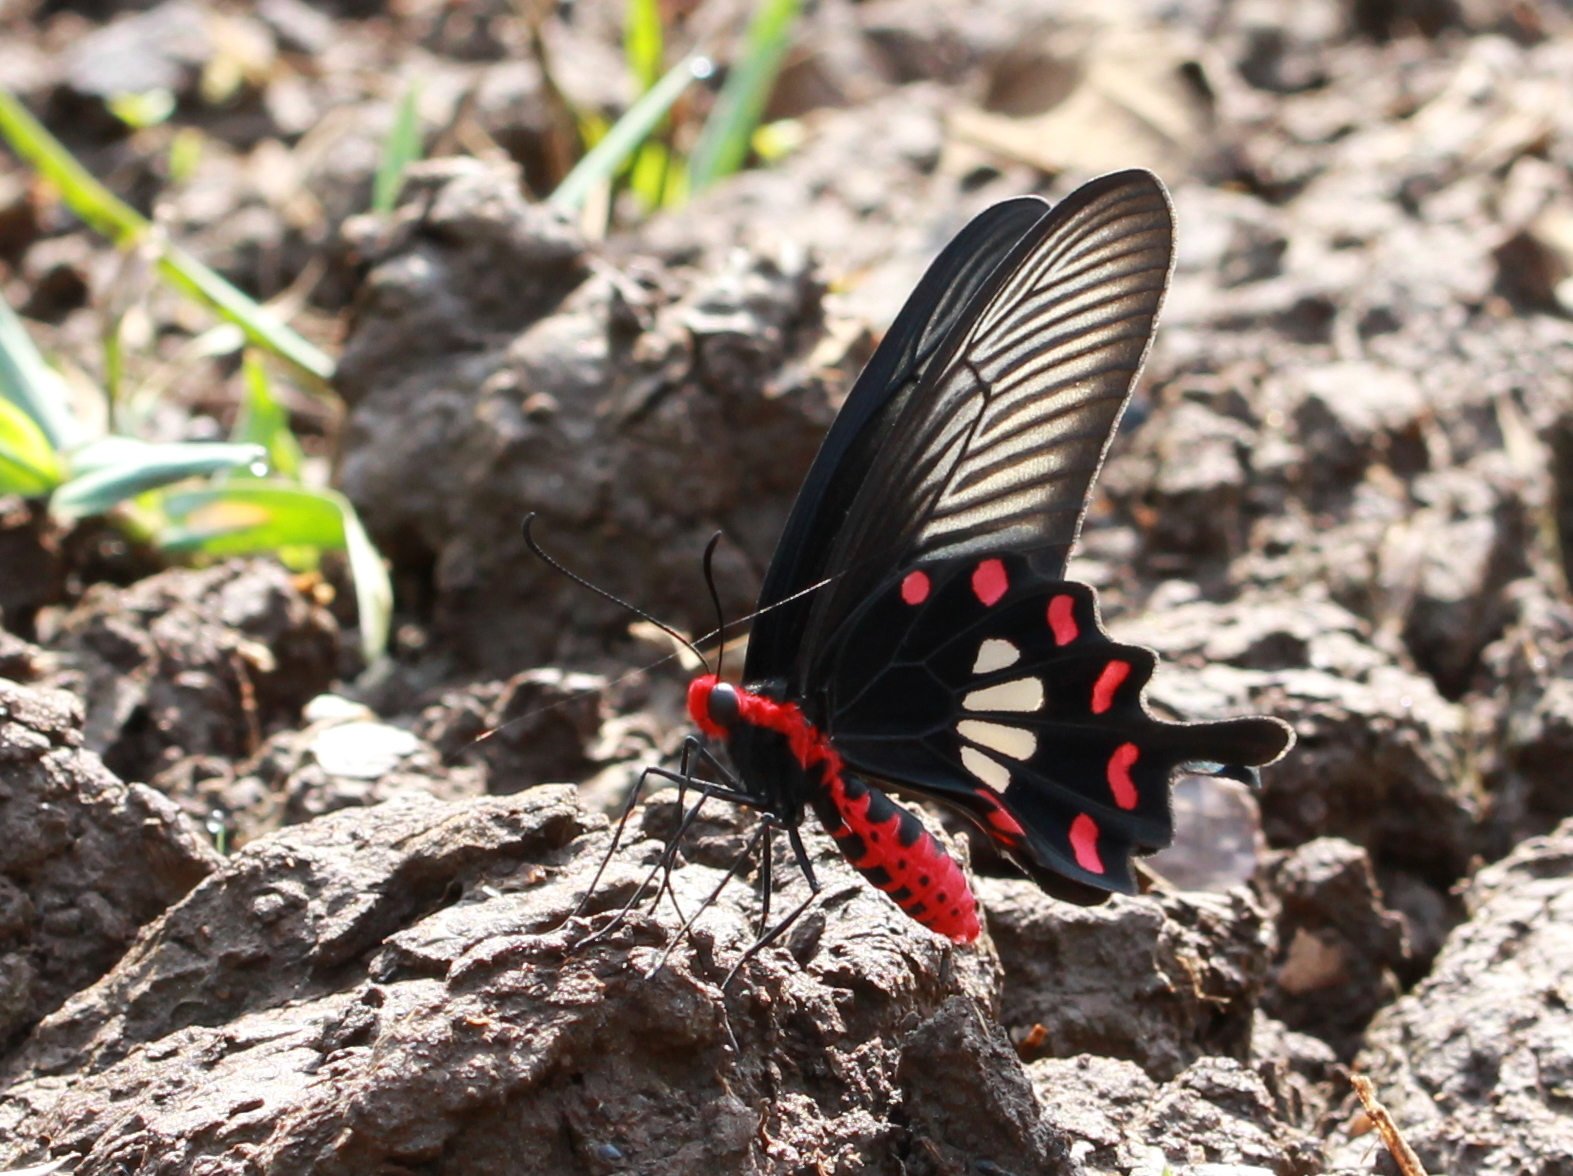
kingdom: Animalia
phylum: Arthropoda
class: Insecta
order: Lepidoptera
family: Papilionidae
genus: Pachliopta
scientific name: Pachliopta aristolochiae
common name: Common rose
